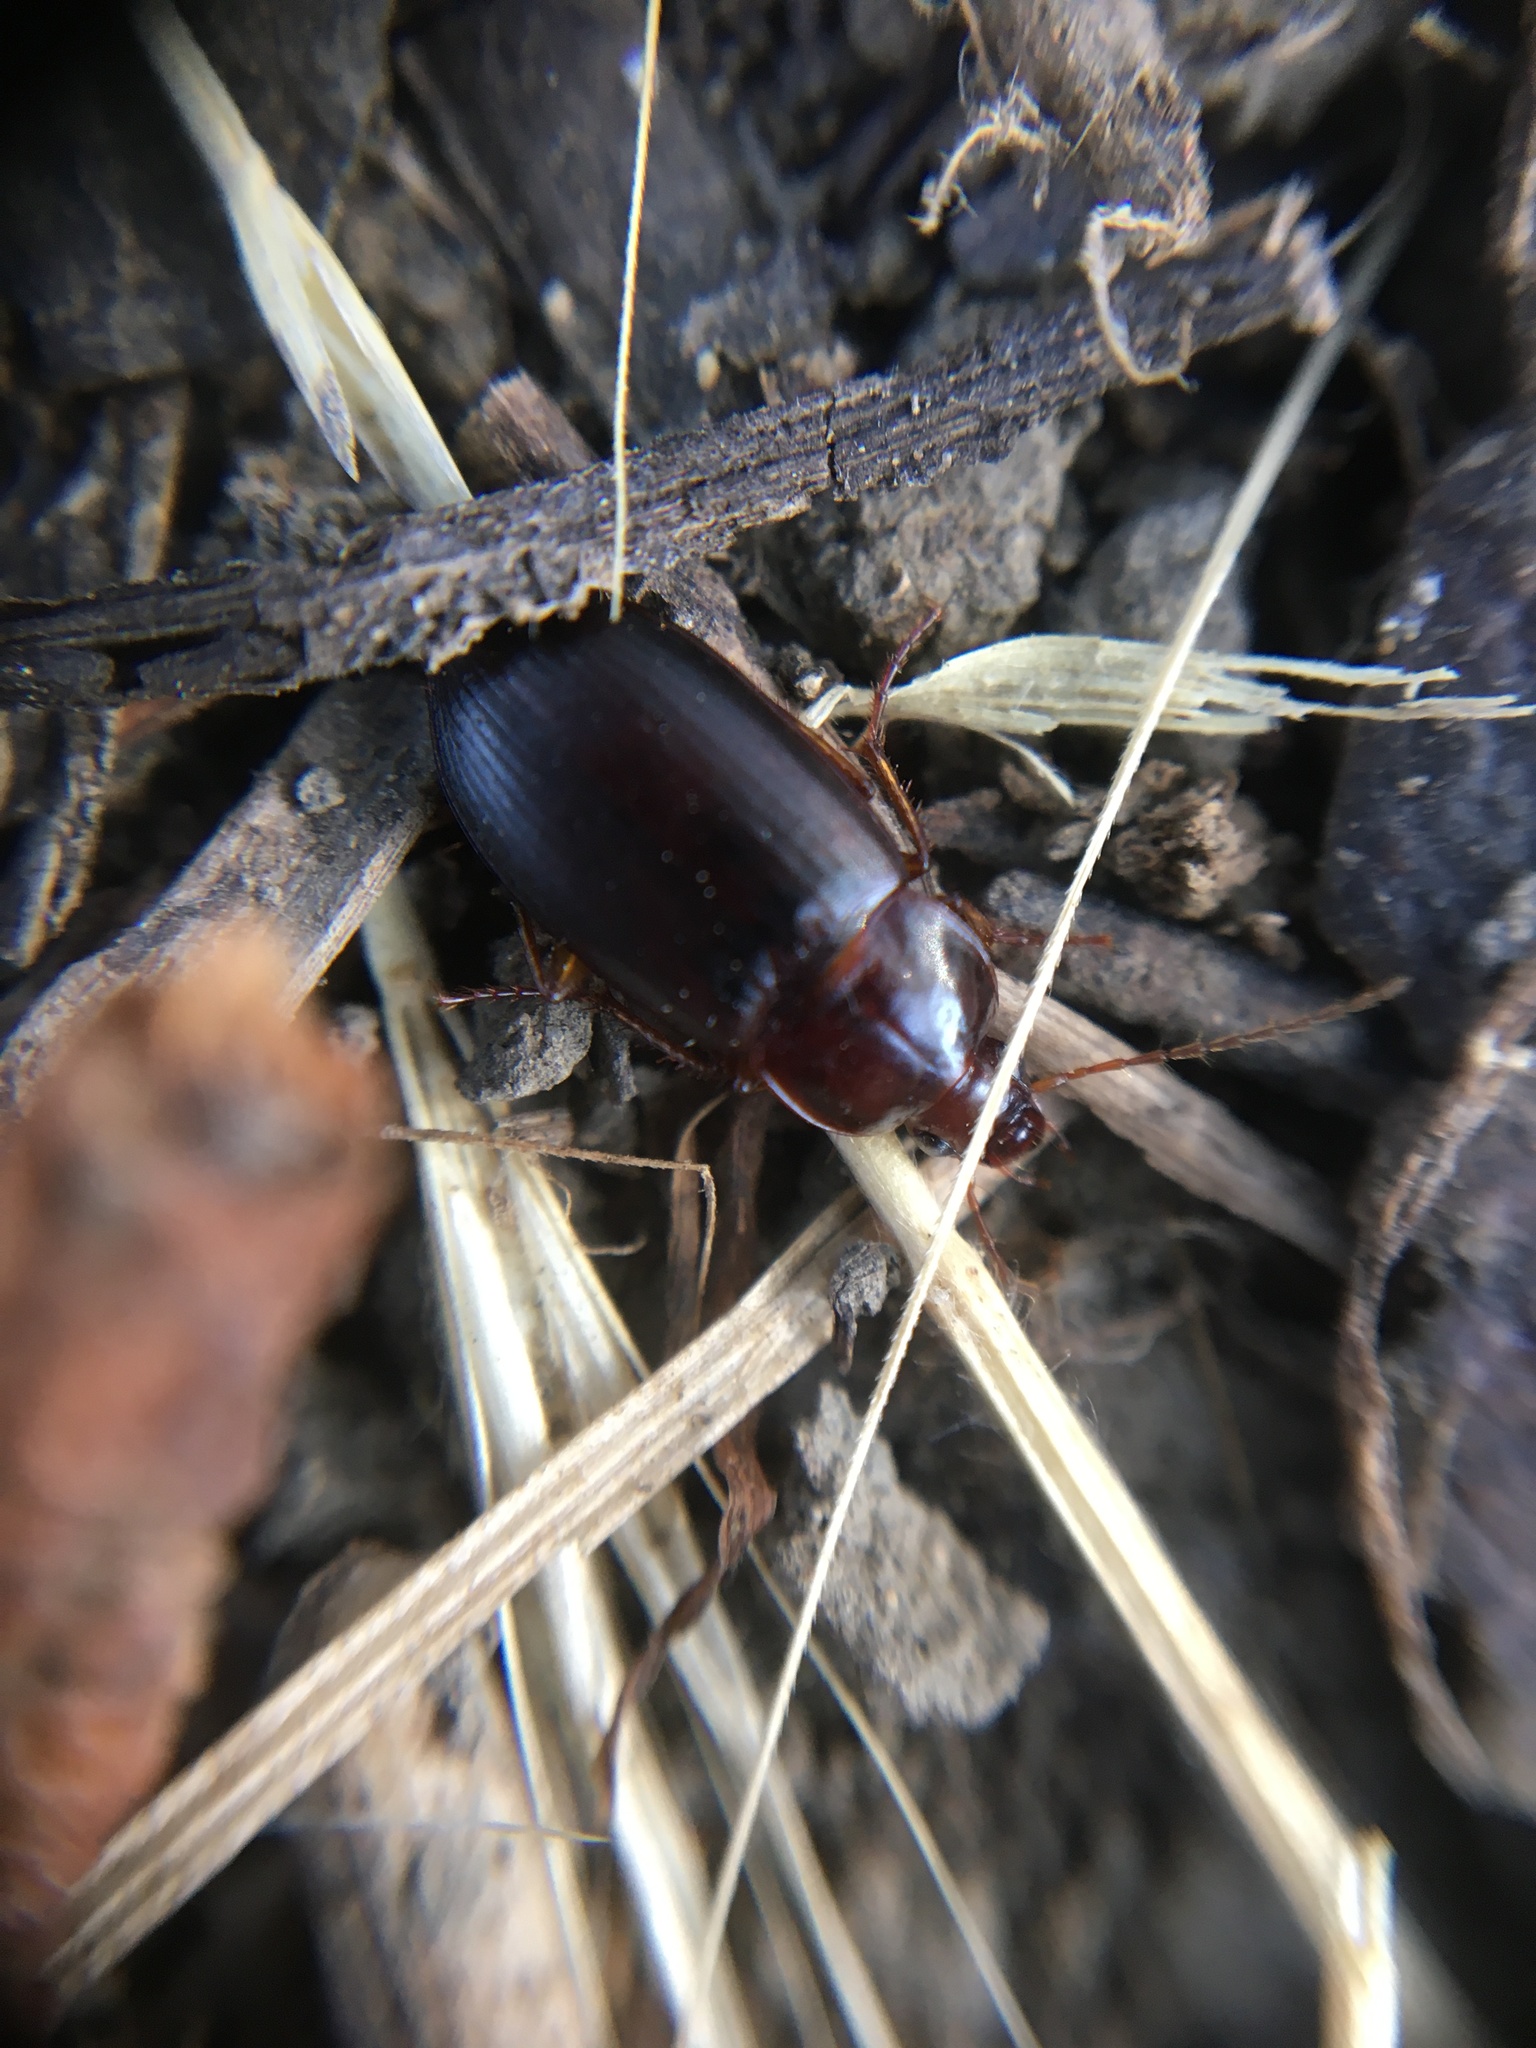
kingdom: Animalia
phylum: Arthropoda
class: Insecta
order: Coleoptera
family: Carabidae
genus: Calathus
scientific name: Calathus ruficollis
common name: Red-collared harp ground beetle
